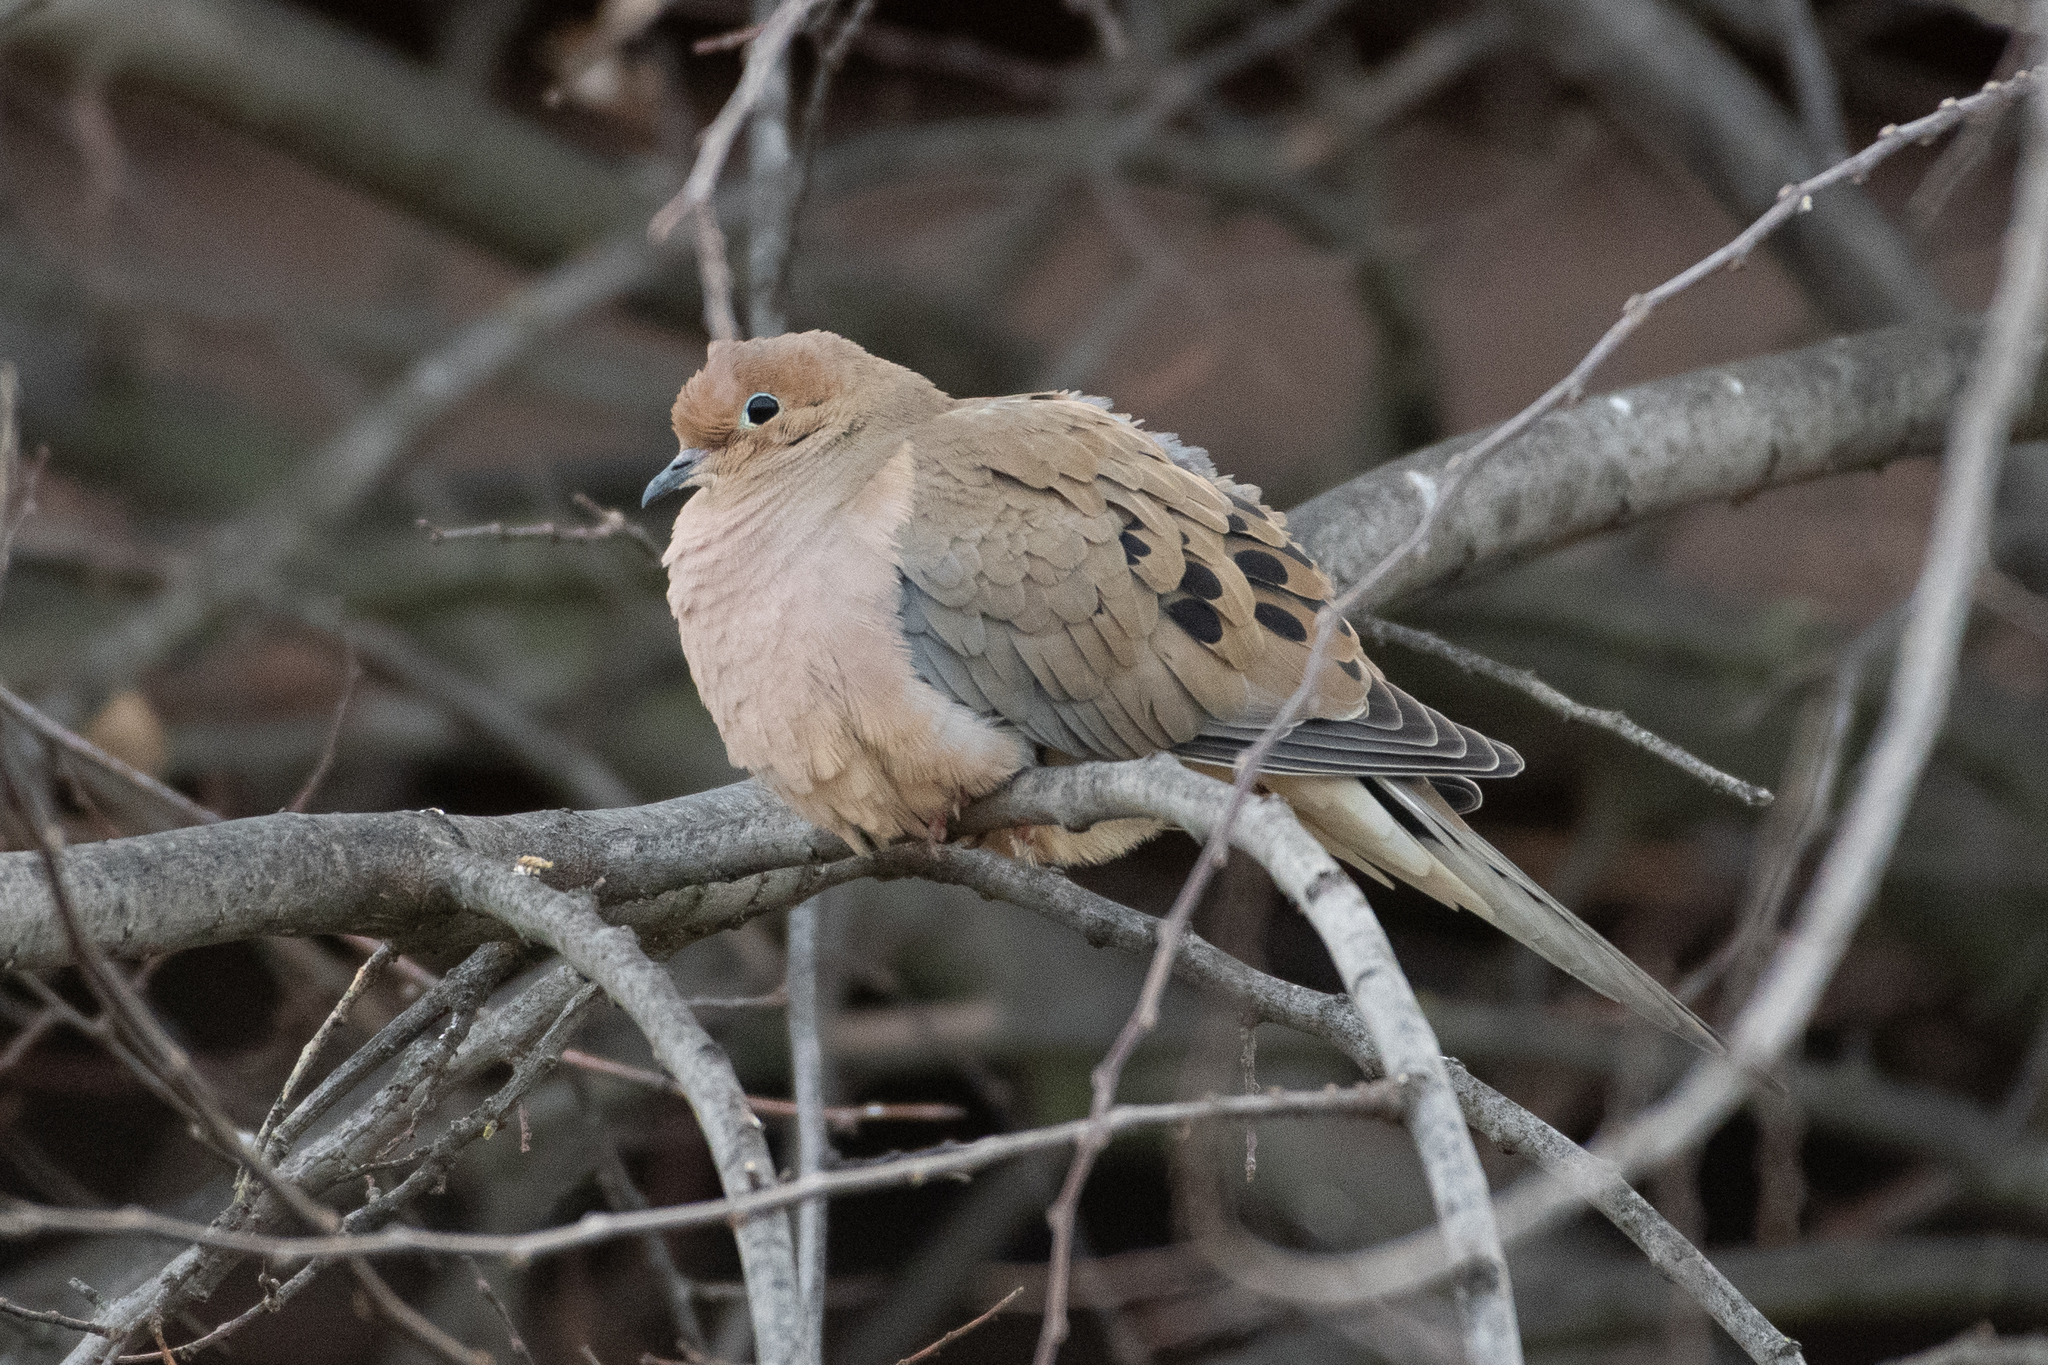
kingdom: Animalia
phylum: Chordata
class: Aves
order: Columbiformes
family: Columbidae
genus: Zenaida
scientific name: Zenaida macroura
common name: Mourning dove
